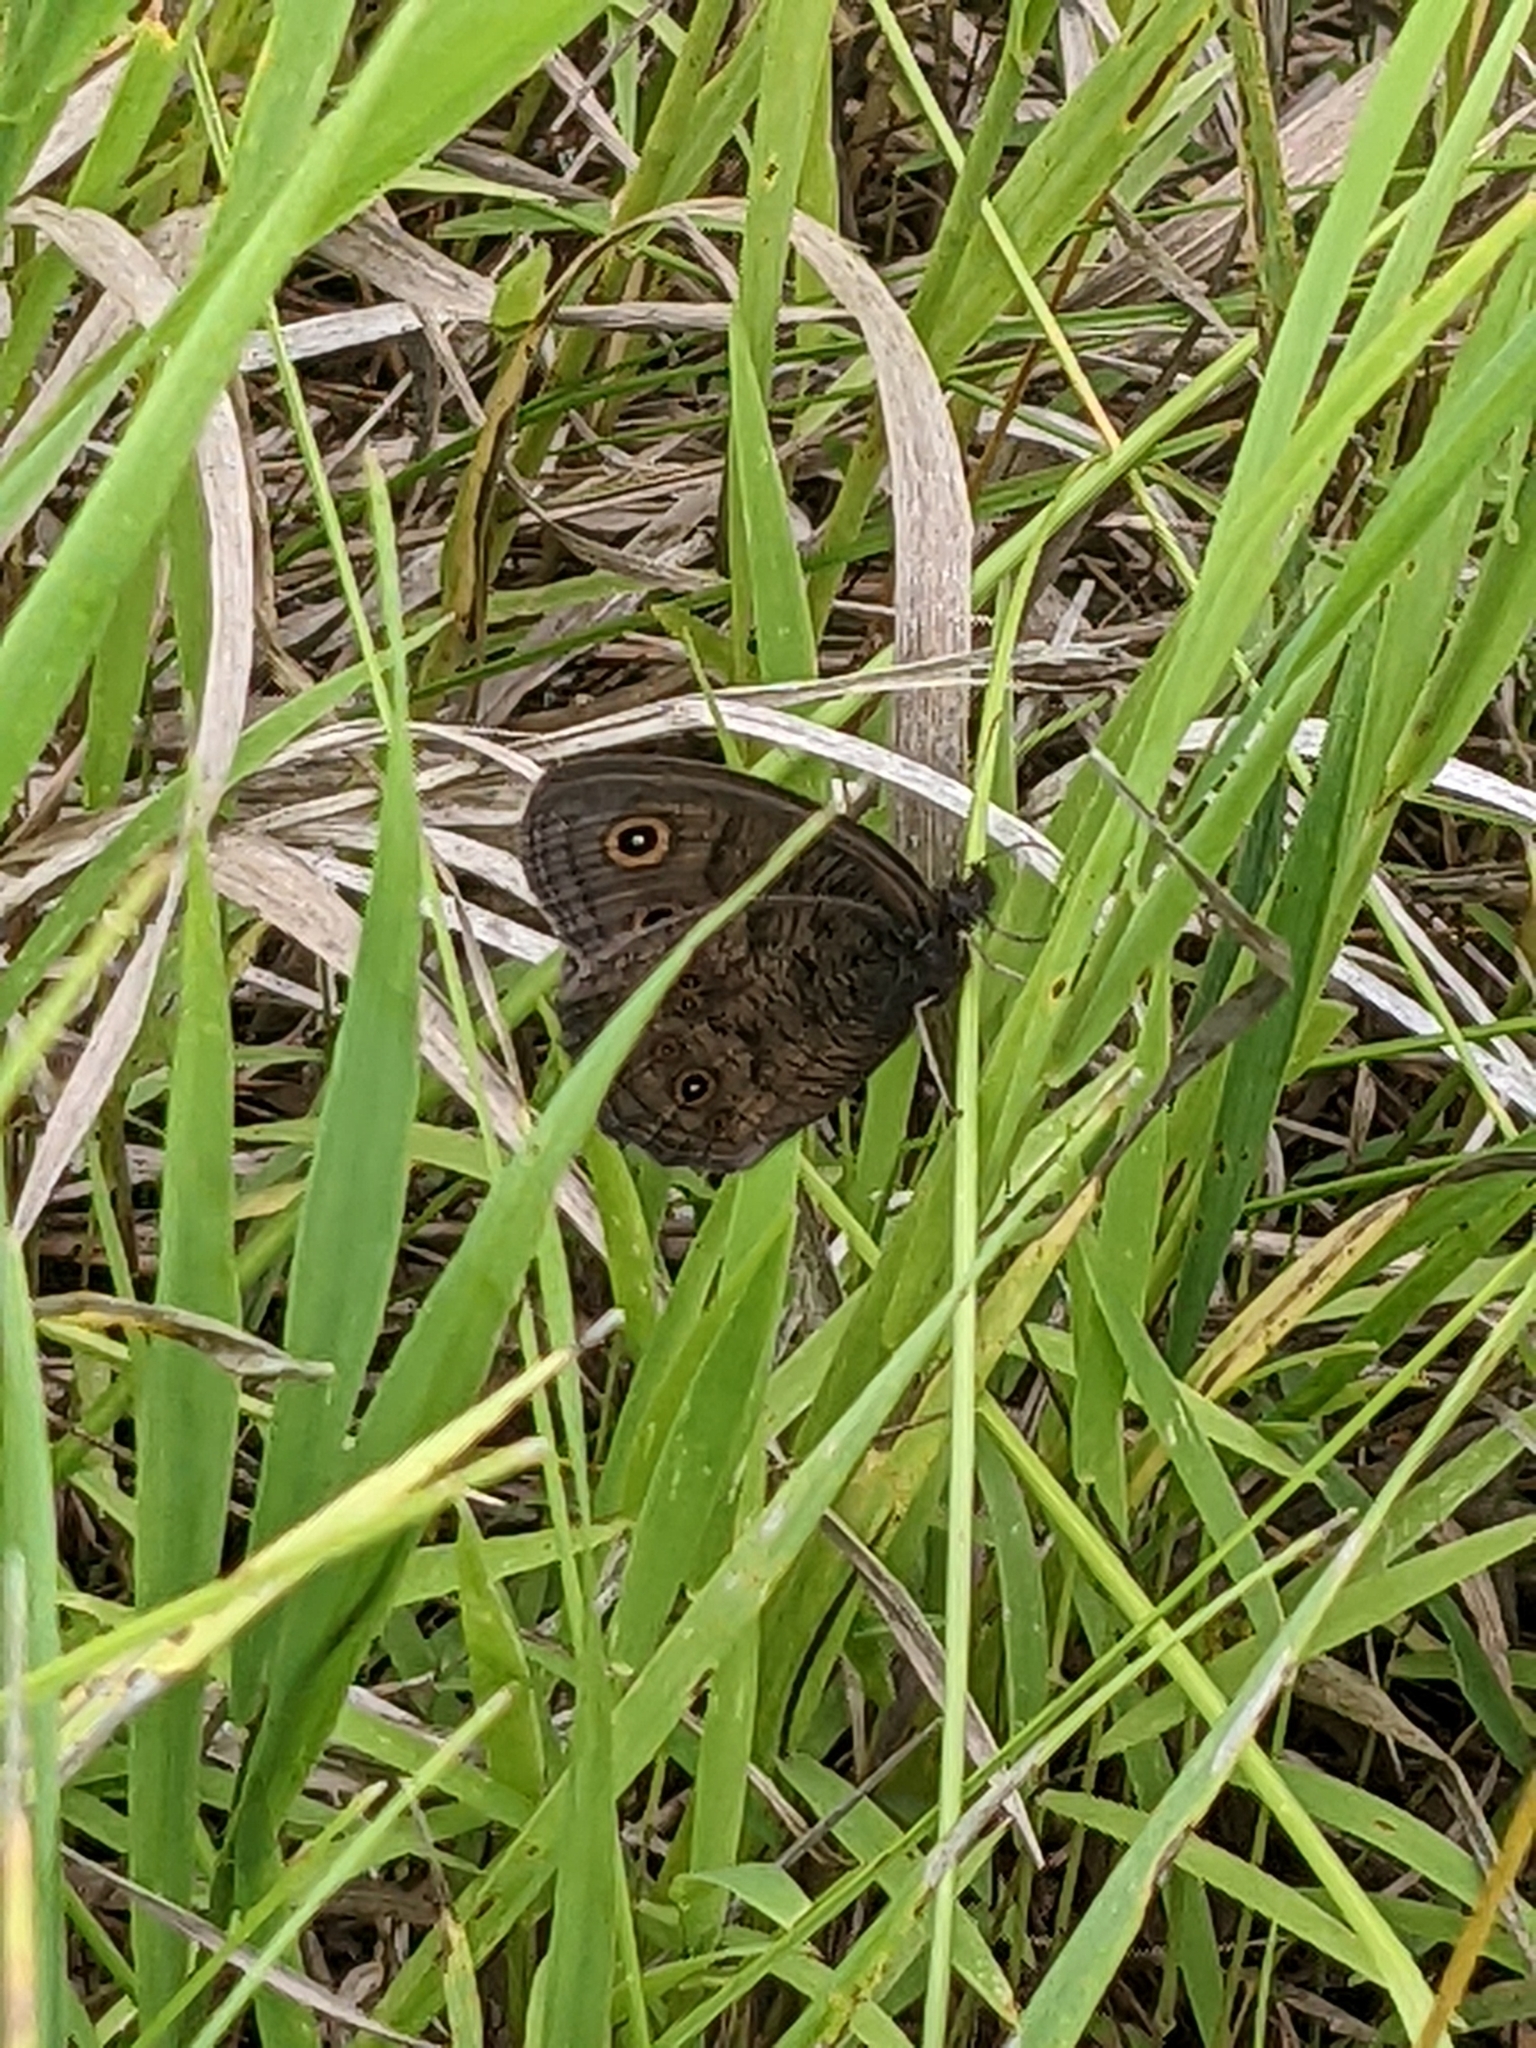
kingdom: Animalia
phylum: Arthropoda
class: Insecta
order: Lepidoptera
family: Nymphalidae
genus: Cercyonis
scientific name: Cercyonis pegala
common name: Common wood-nymph
